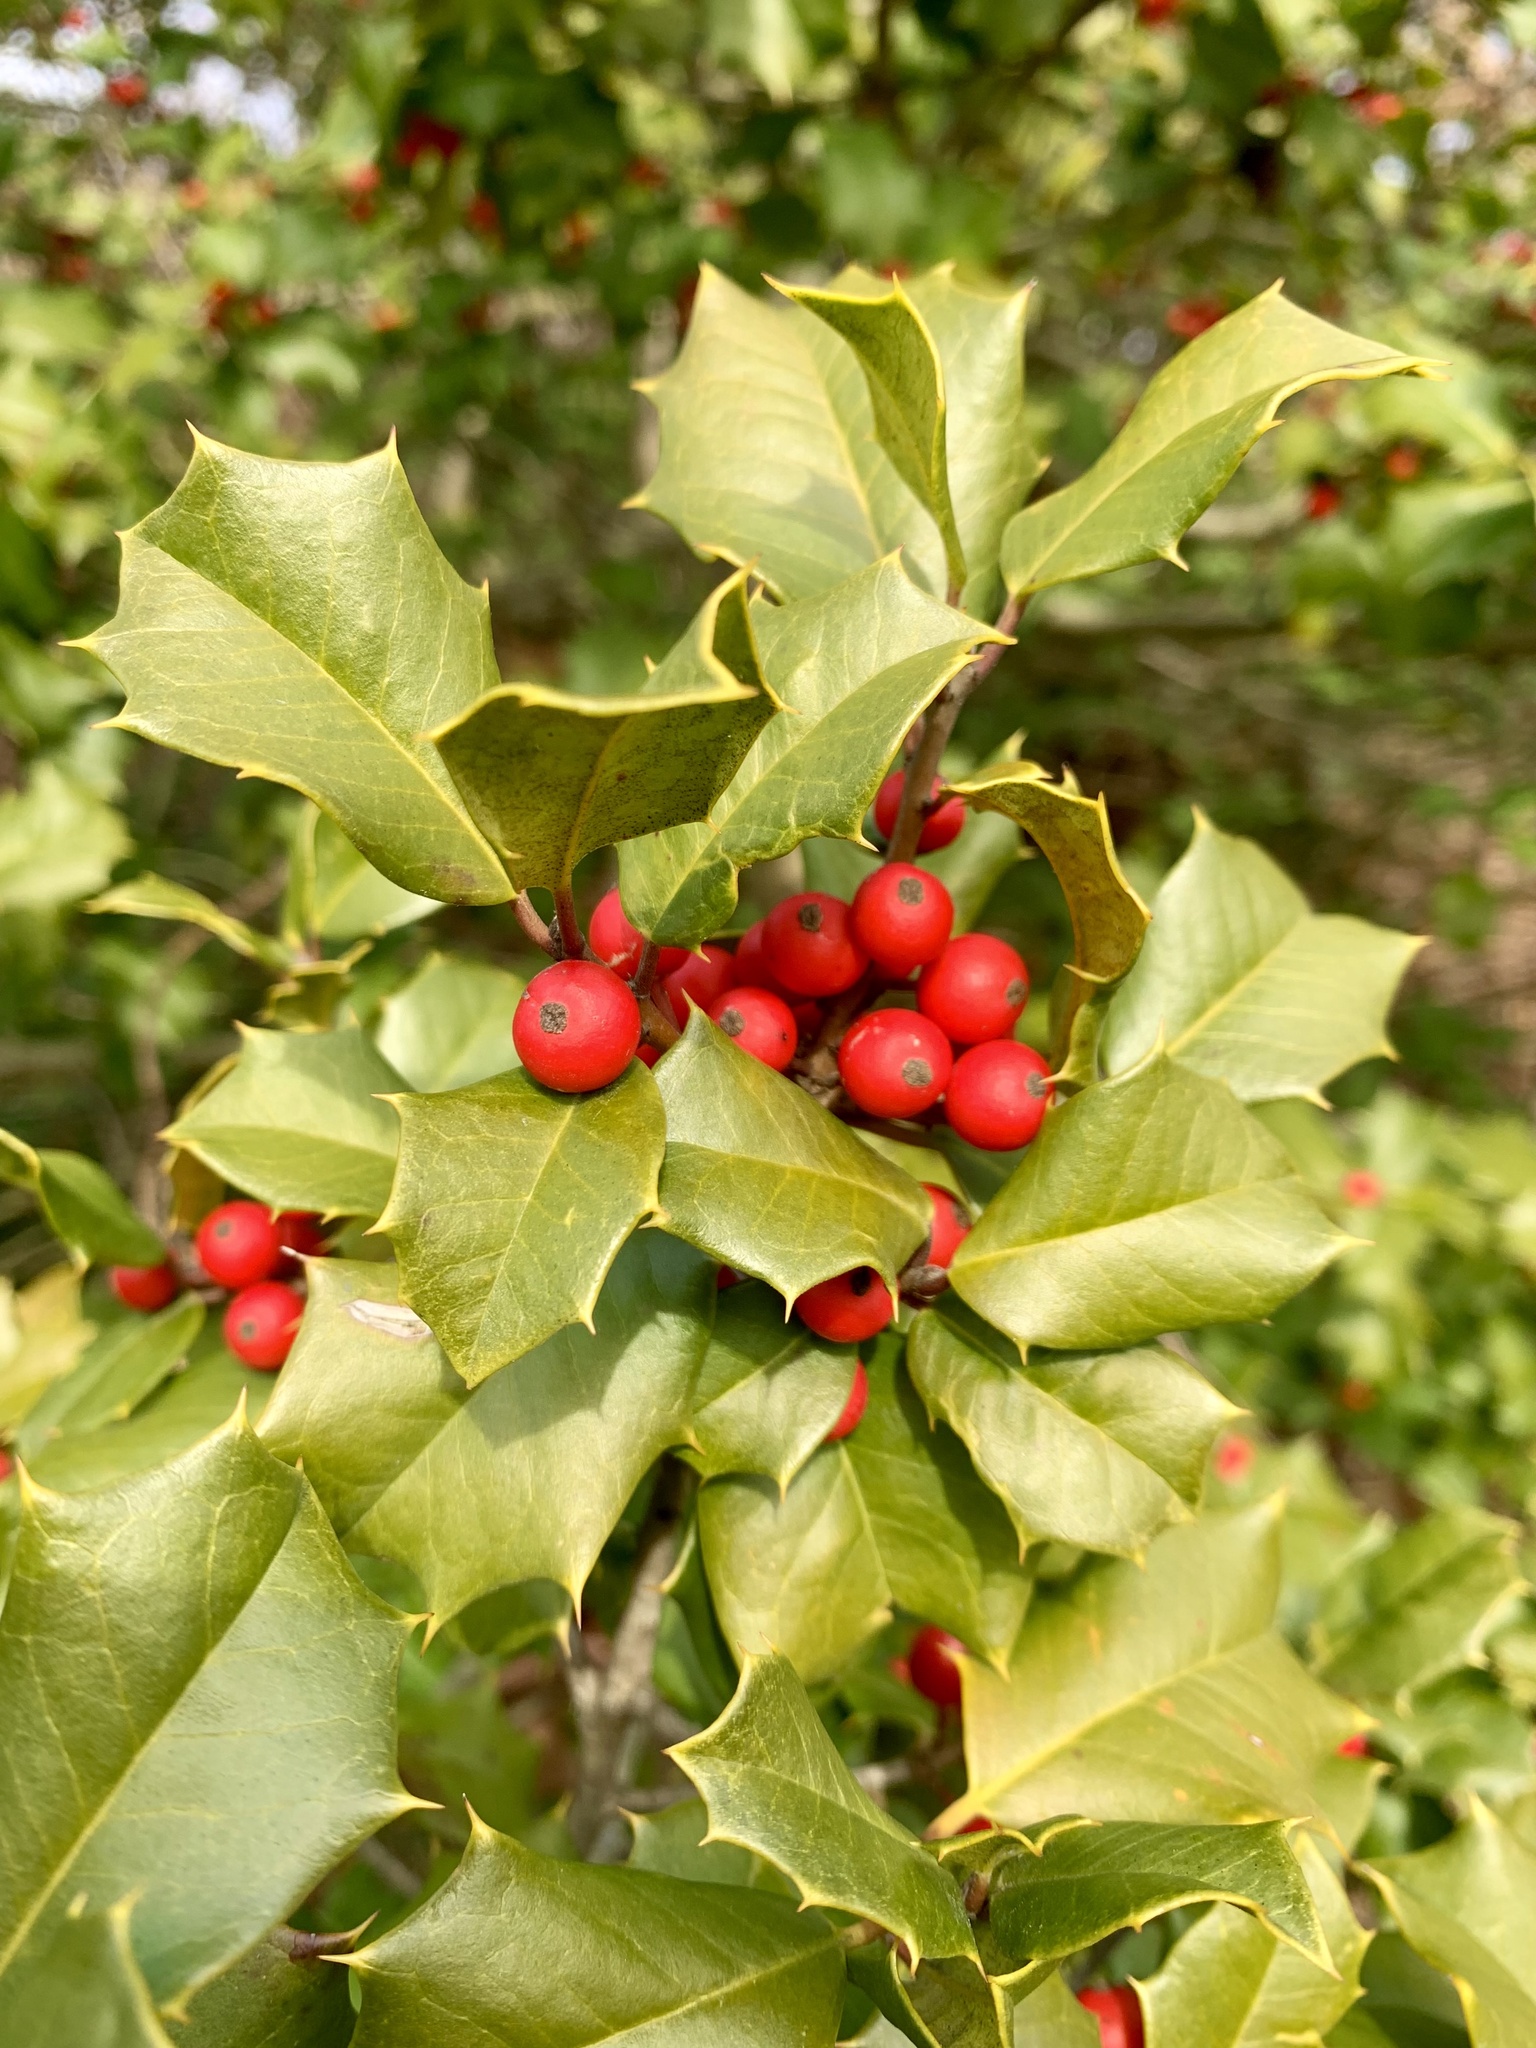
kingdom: Plantae
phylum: Tracheophyta
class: Magnoliopsida
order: Aquifoliales
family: Aquifoliaceae
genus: Ilex
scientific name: Ilex opaca
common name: American holly
